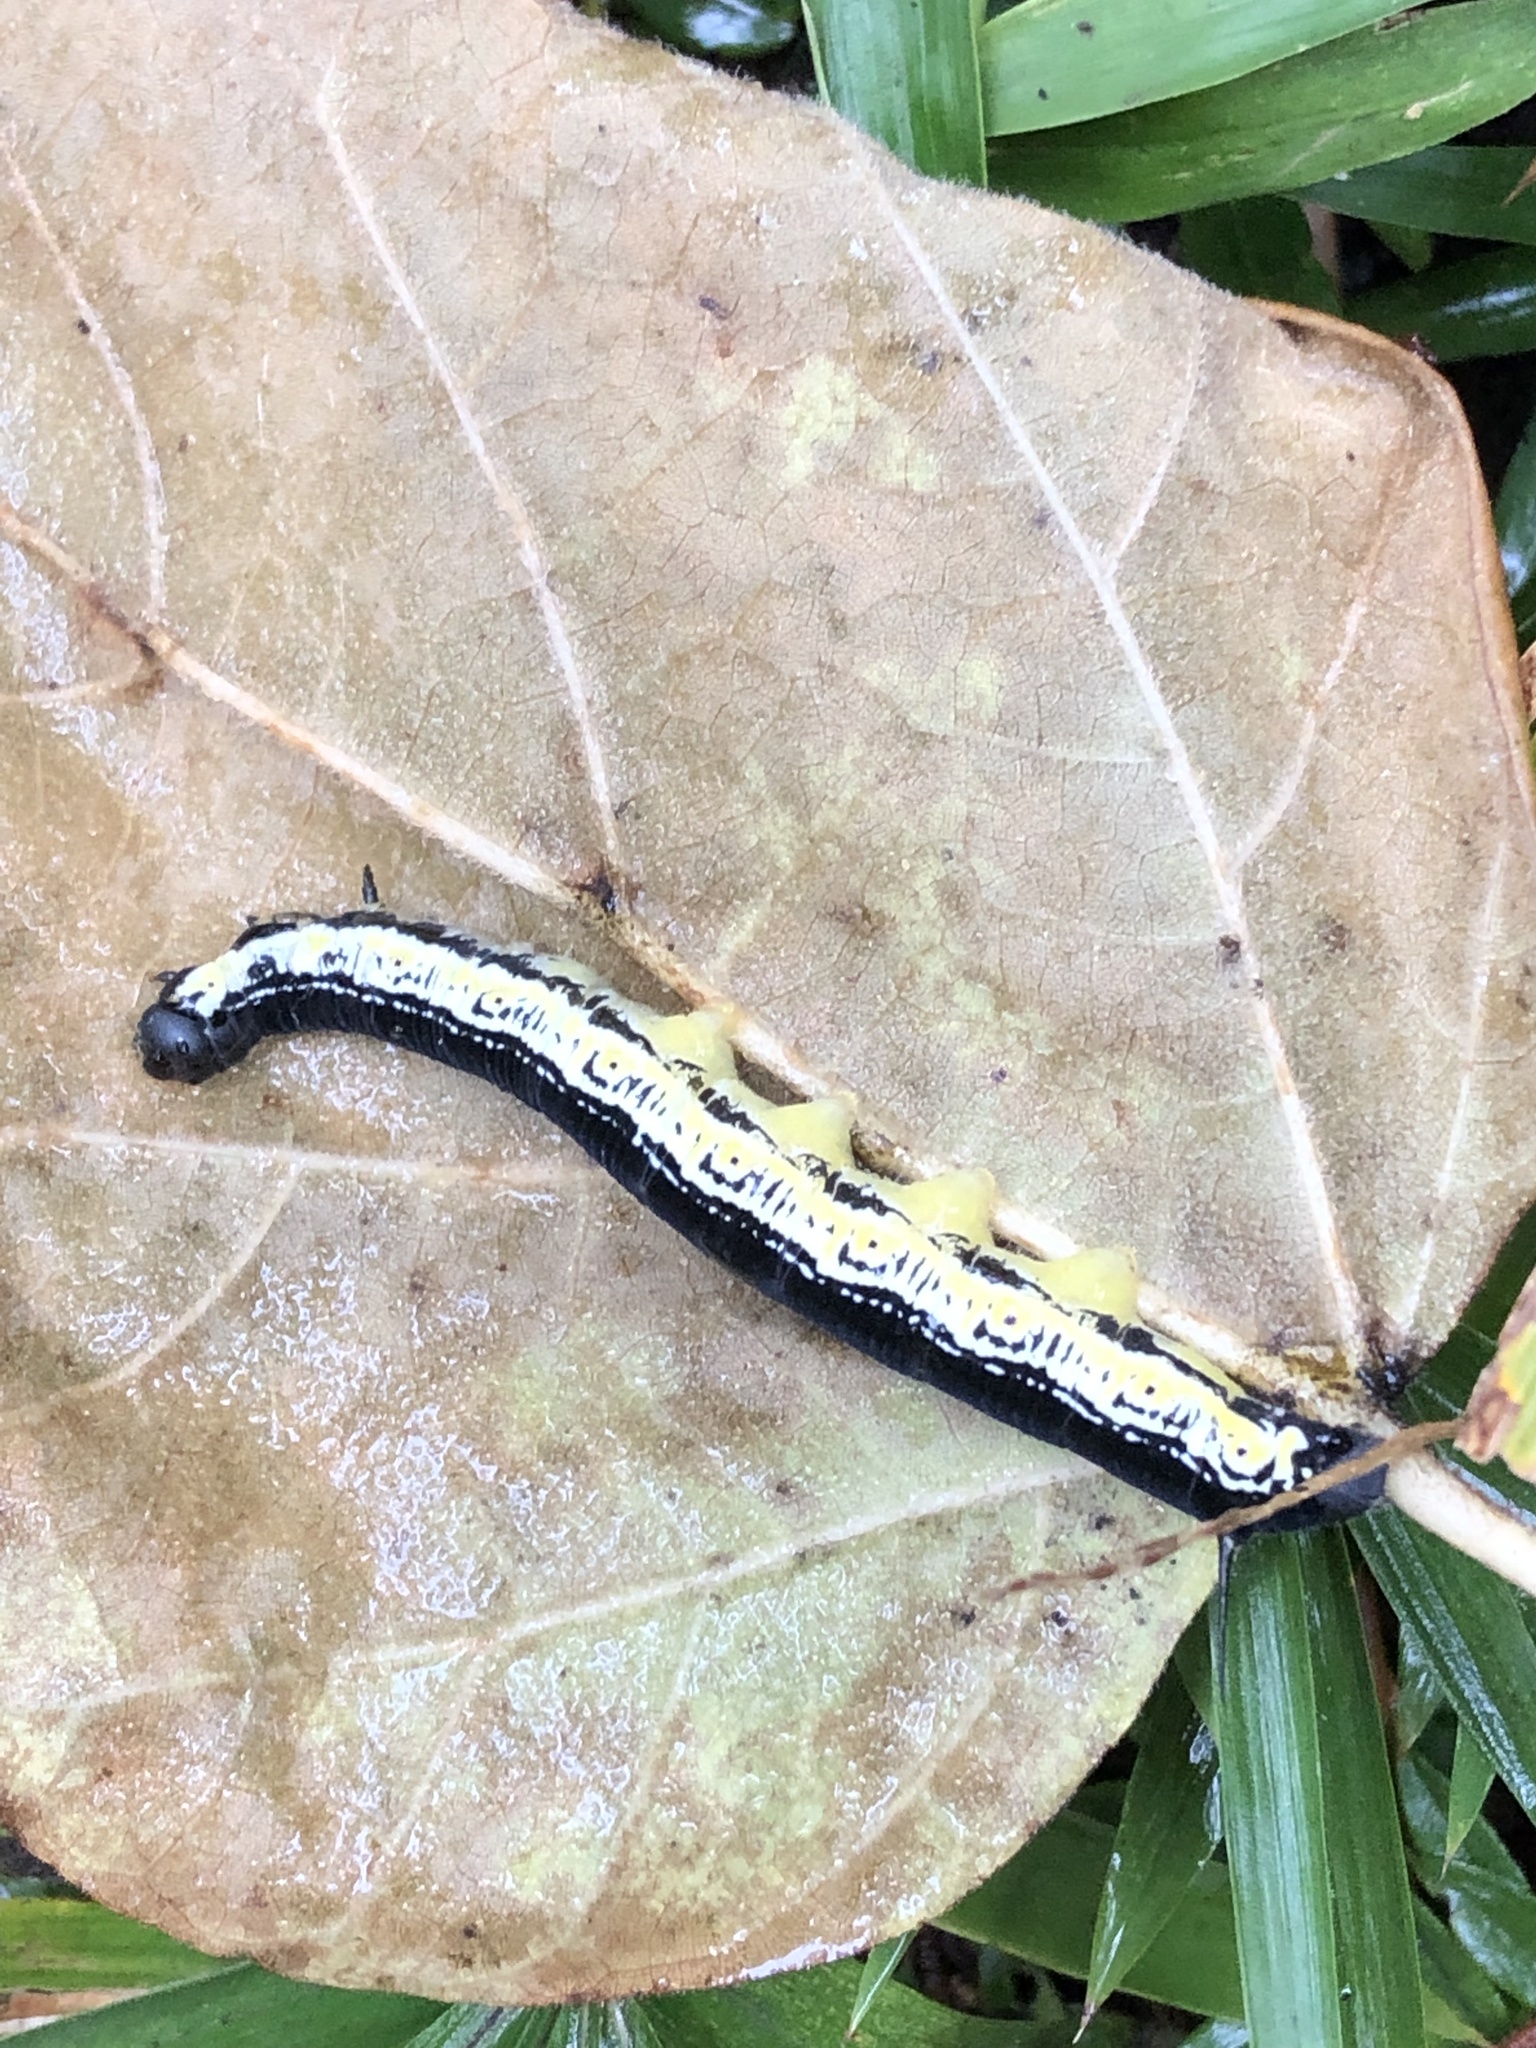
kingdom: Animalia
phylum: Arthropoda
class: Insecta
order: Lepidoptera
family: Sphingidae
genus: Ceratomia
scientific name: Ceratomia catalpae
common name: Catalpa hornworm
